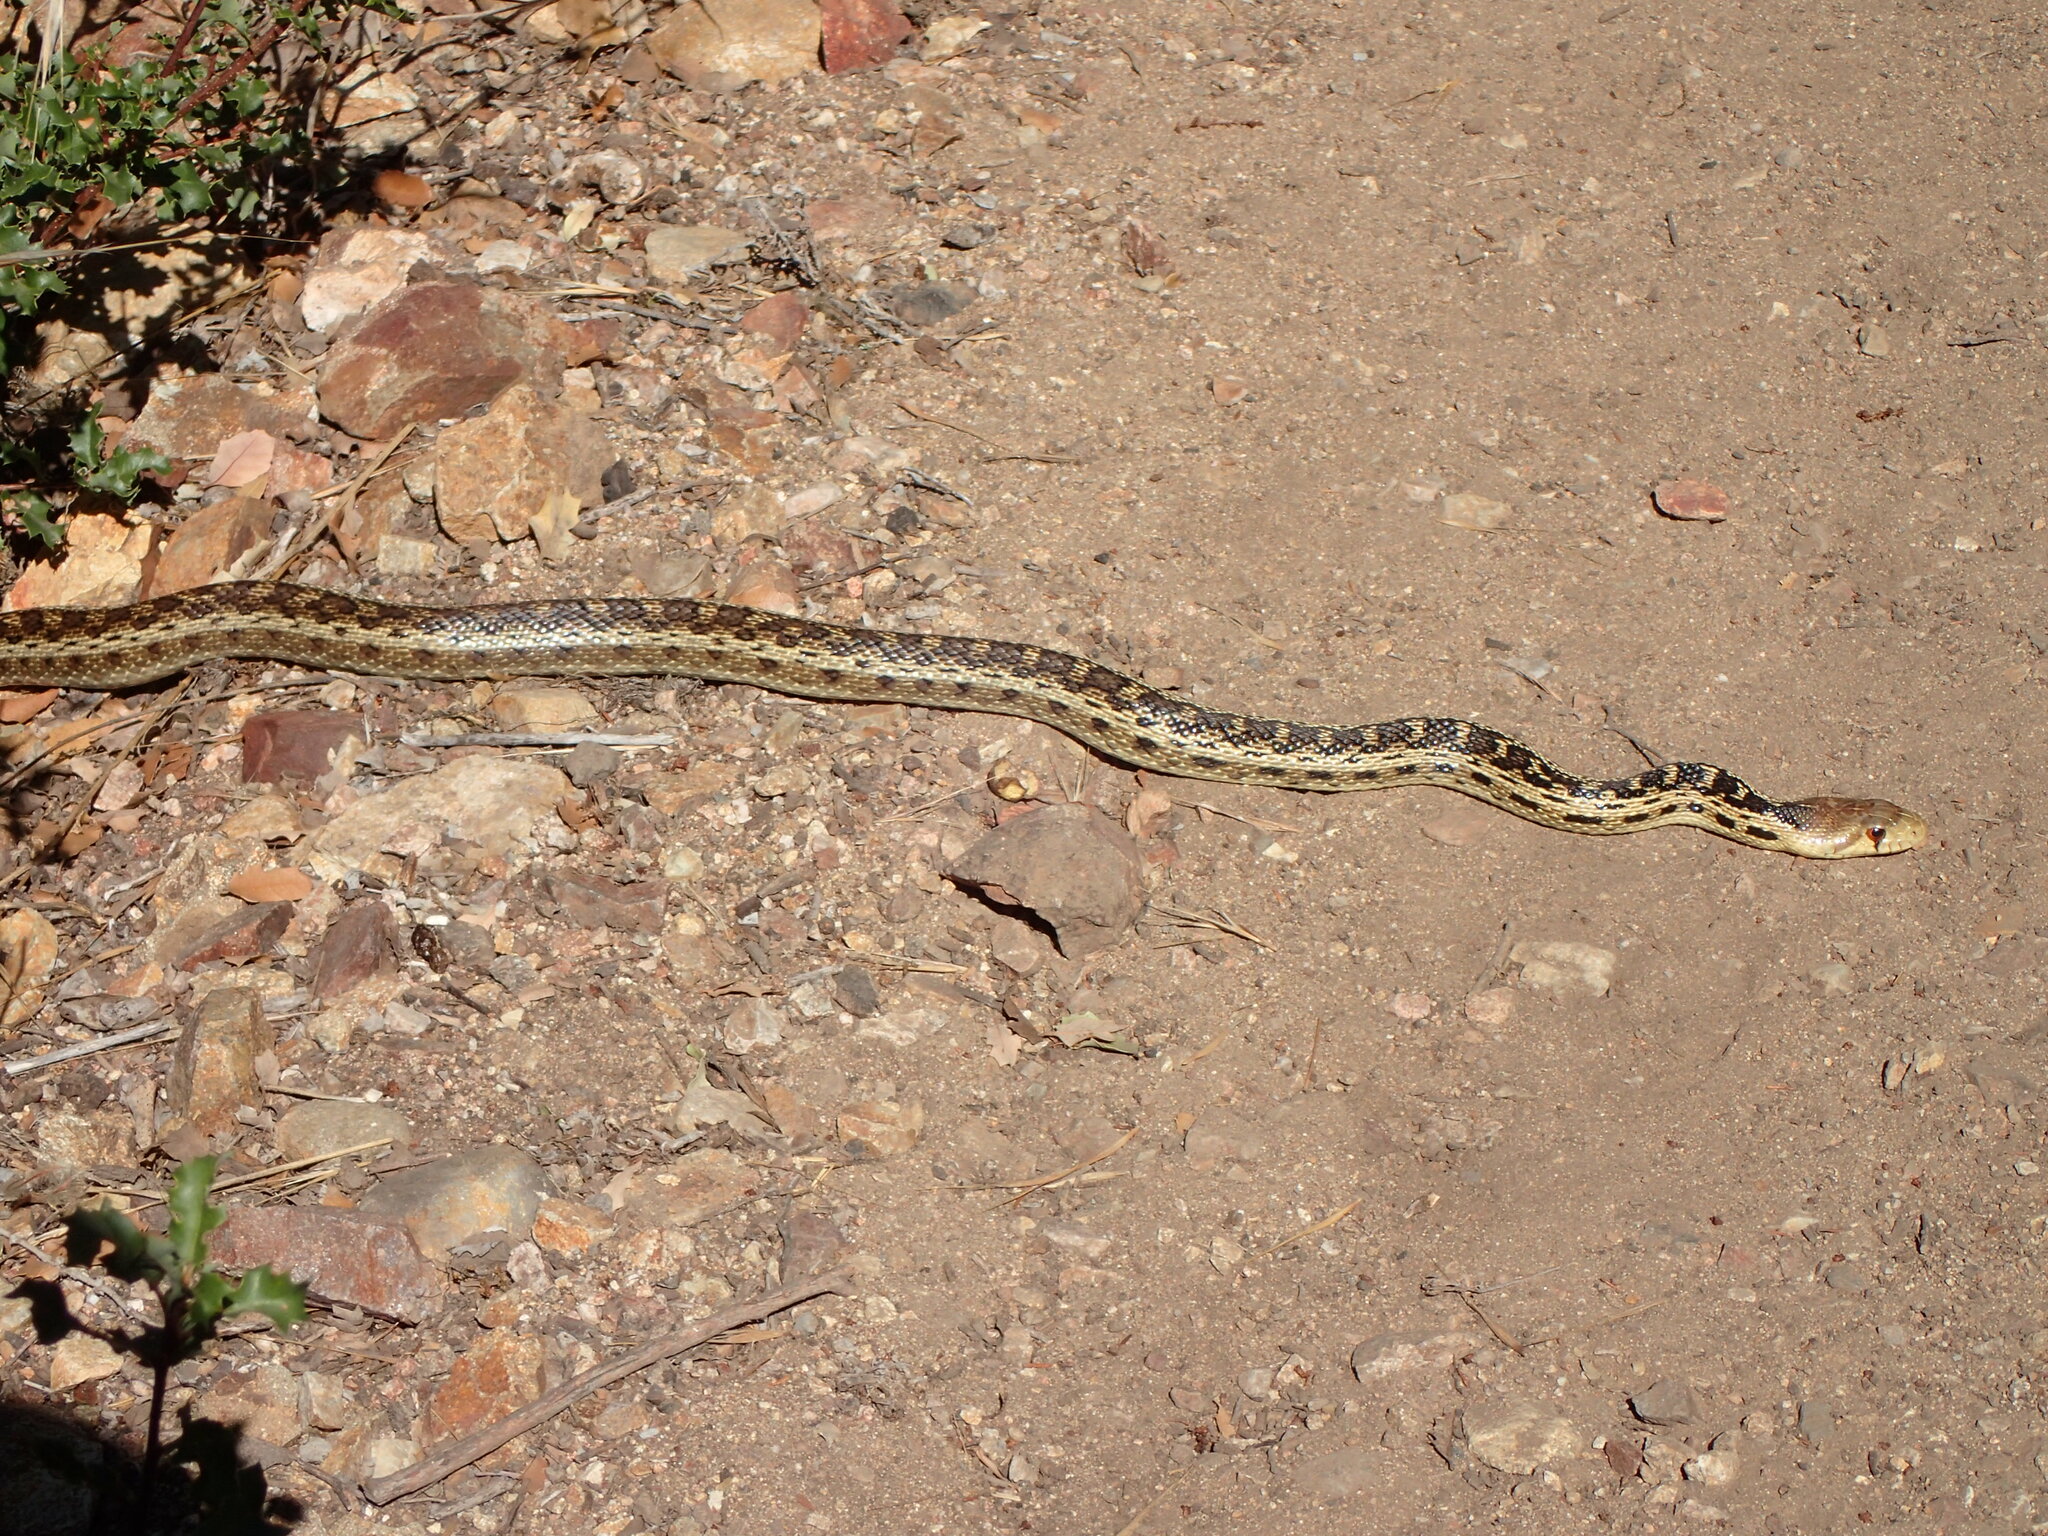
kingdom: Animalia
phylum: Chordata
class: Squamata
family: Colubridae
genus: Pituophis
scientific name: Pituophis catenifer
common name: Gopher snake
